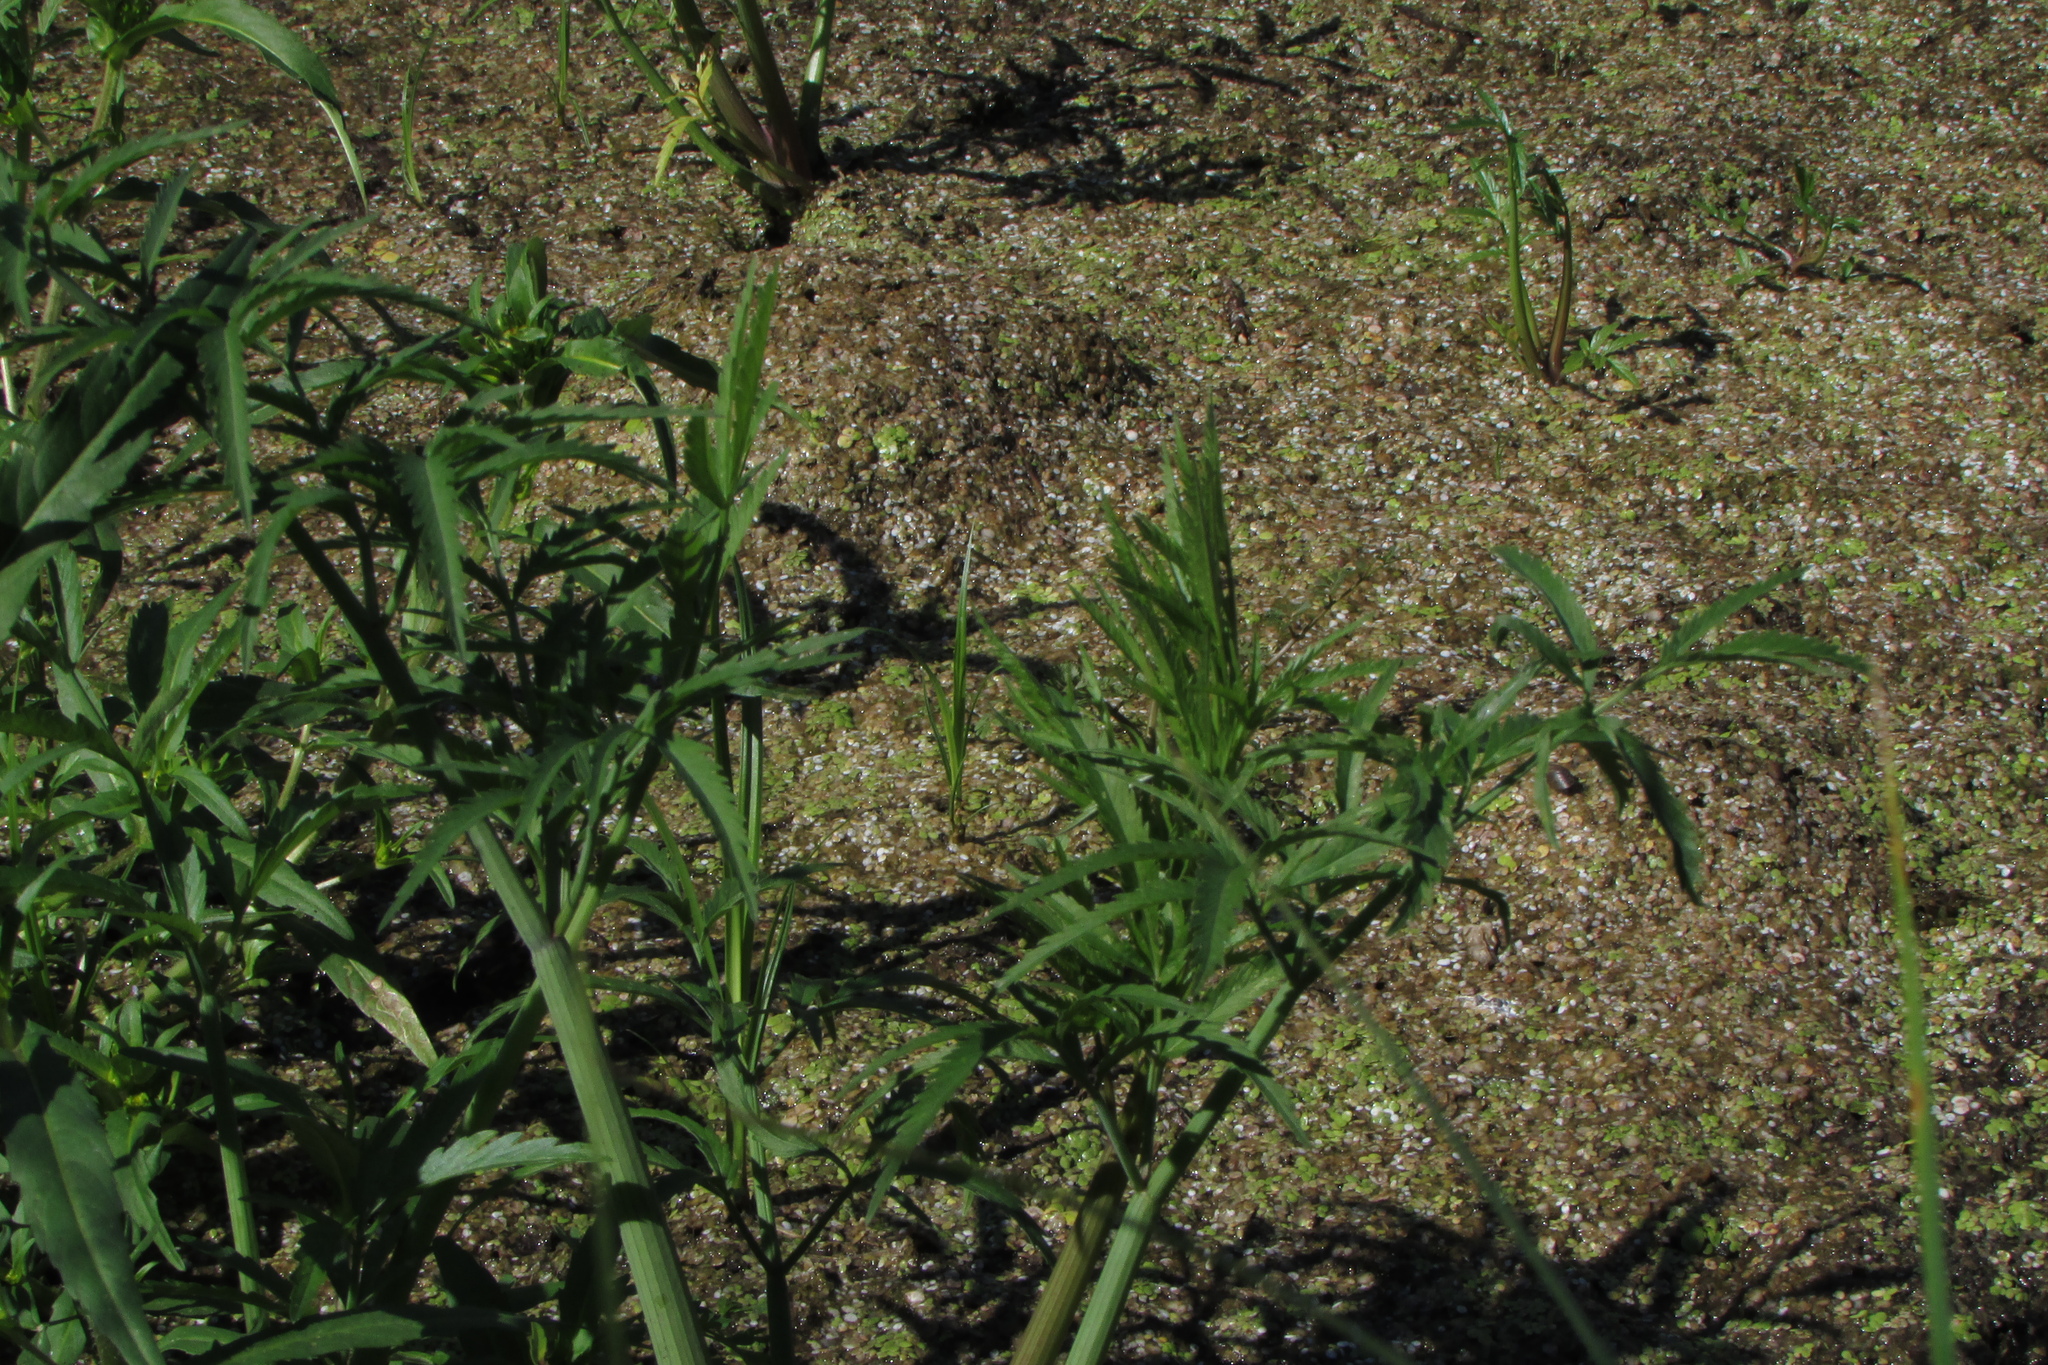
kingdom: Plantae
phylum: Tracheophyta
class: Magnoliopsida
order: Apiales
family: Apiaceae
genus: Cicuta
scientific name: Cicuta virosa
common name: Cowbane
